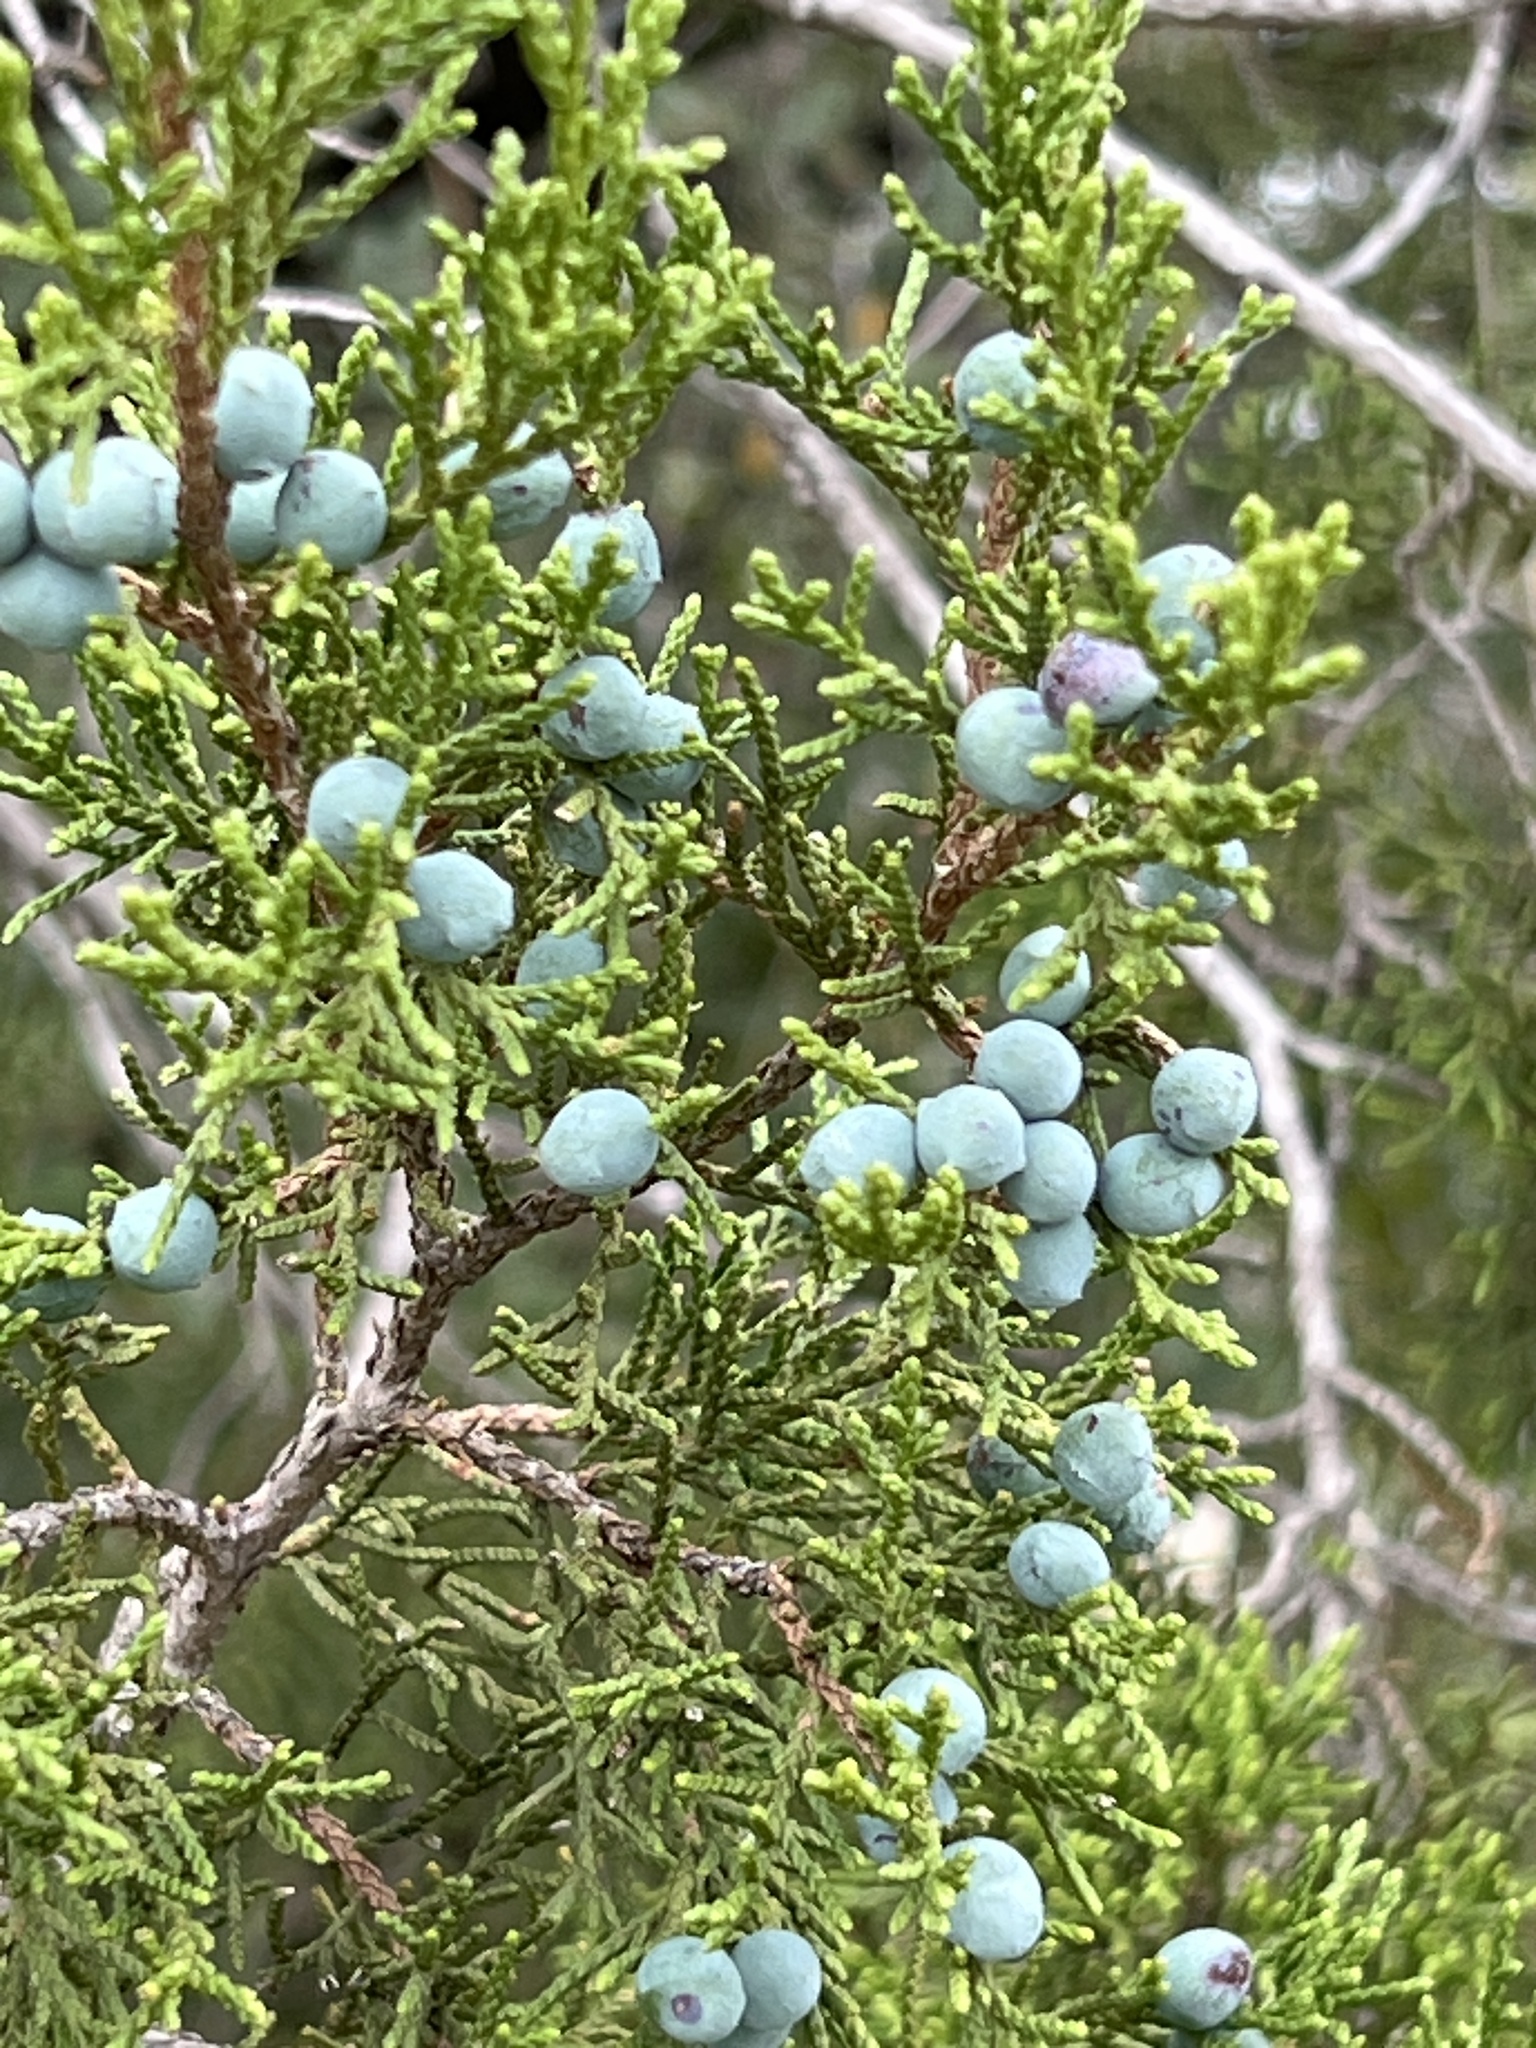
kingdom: Plantae
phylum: Tracheophyta
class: Pinopsida
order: Pinales
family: Cupressaceae
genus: Juniperus
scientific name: Juniperus ashei
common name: Mexican juniper
